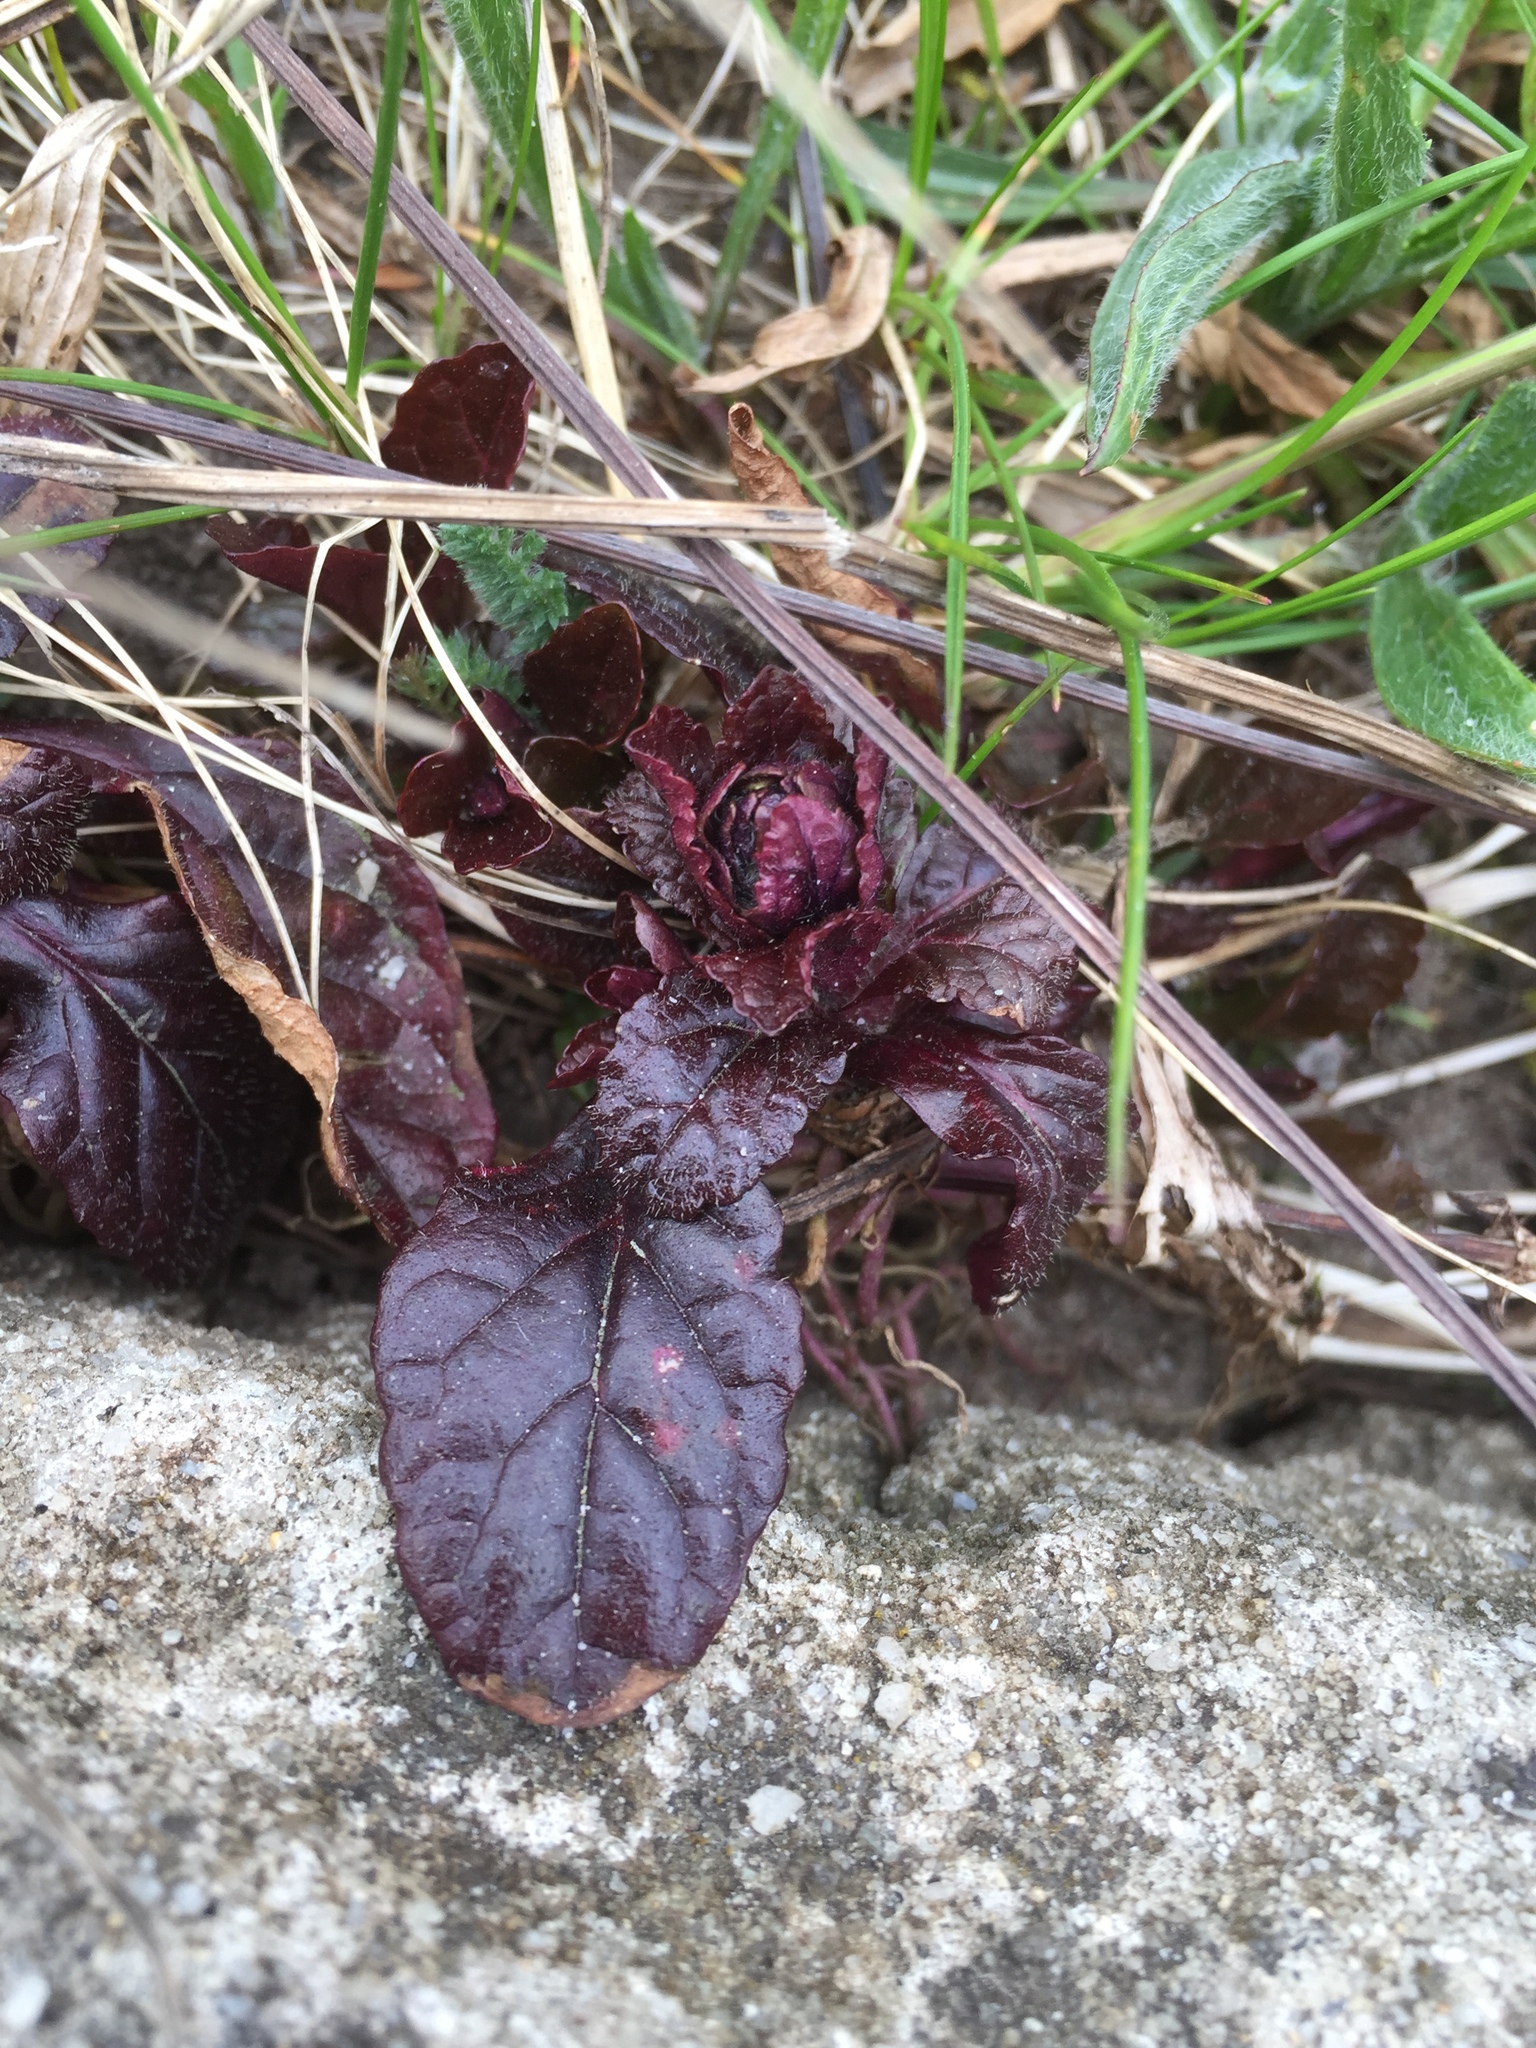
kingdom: Plantae
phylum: Tracheophyta
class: Magnoliopsida
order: Lamiales
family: Lamiaceae
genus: Ajuga
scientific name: Ajuga reptans
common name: Bugle
